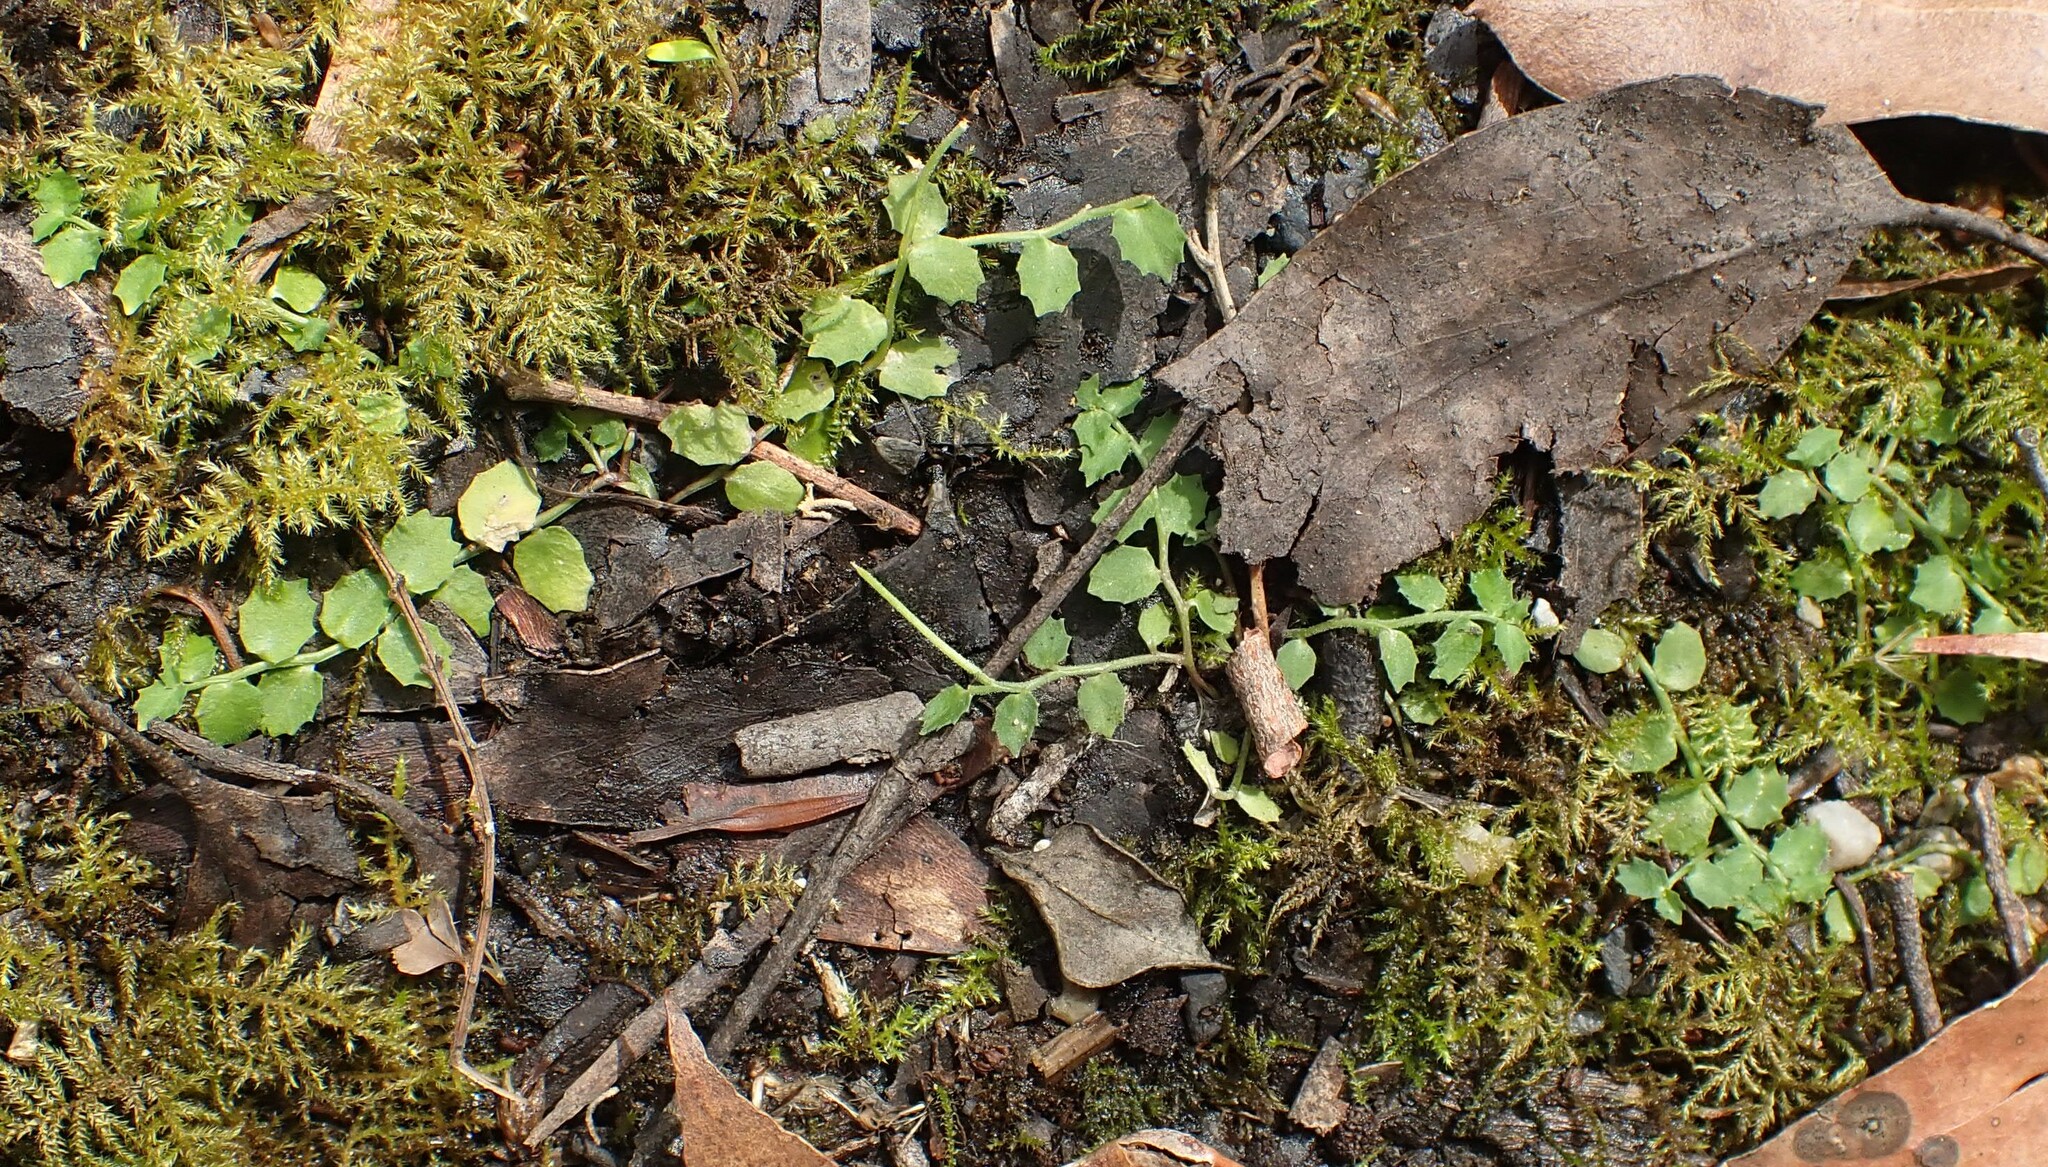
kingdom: Plantae
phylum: Tracheophyta
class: Magnoliopsida
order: Asterales
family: Campanulaceae
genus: Lobelia
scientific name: Lobelia pedunculata
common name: Matted pratia
